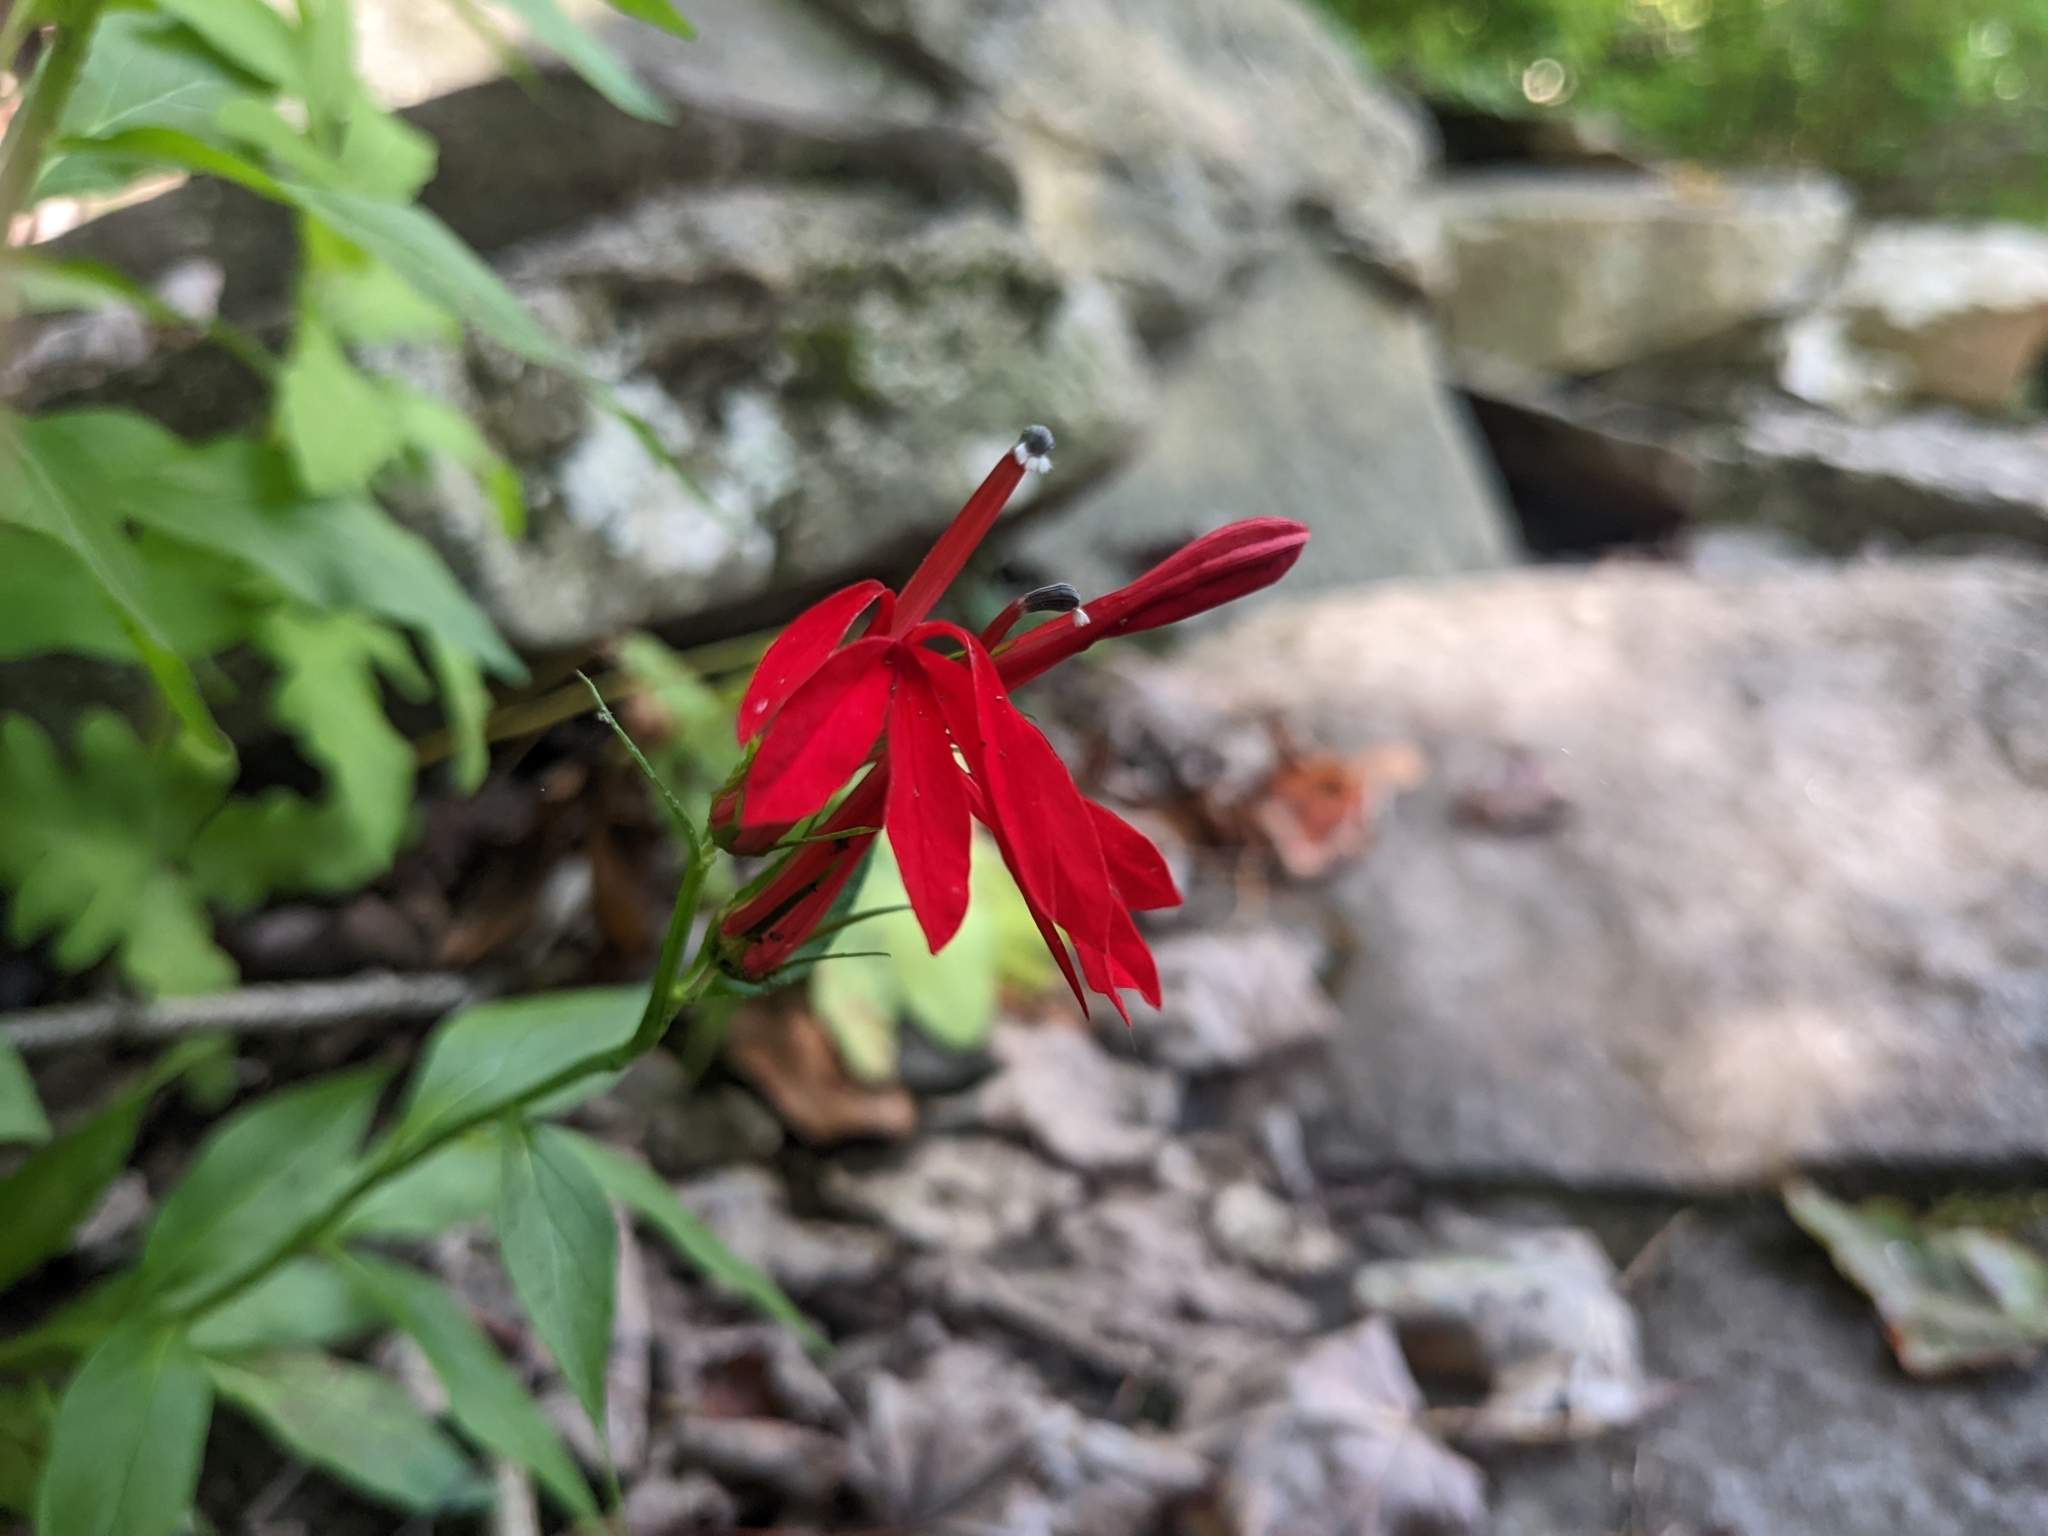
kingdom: Plantae
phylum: Tracheophyta
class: Magnoliopsida
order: Asterales
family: Campanulaceae
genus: Lobelia
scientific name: Lobelia cardinalis
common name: Cardinal flower
